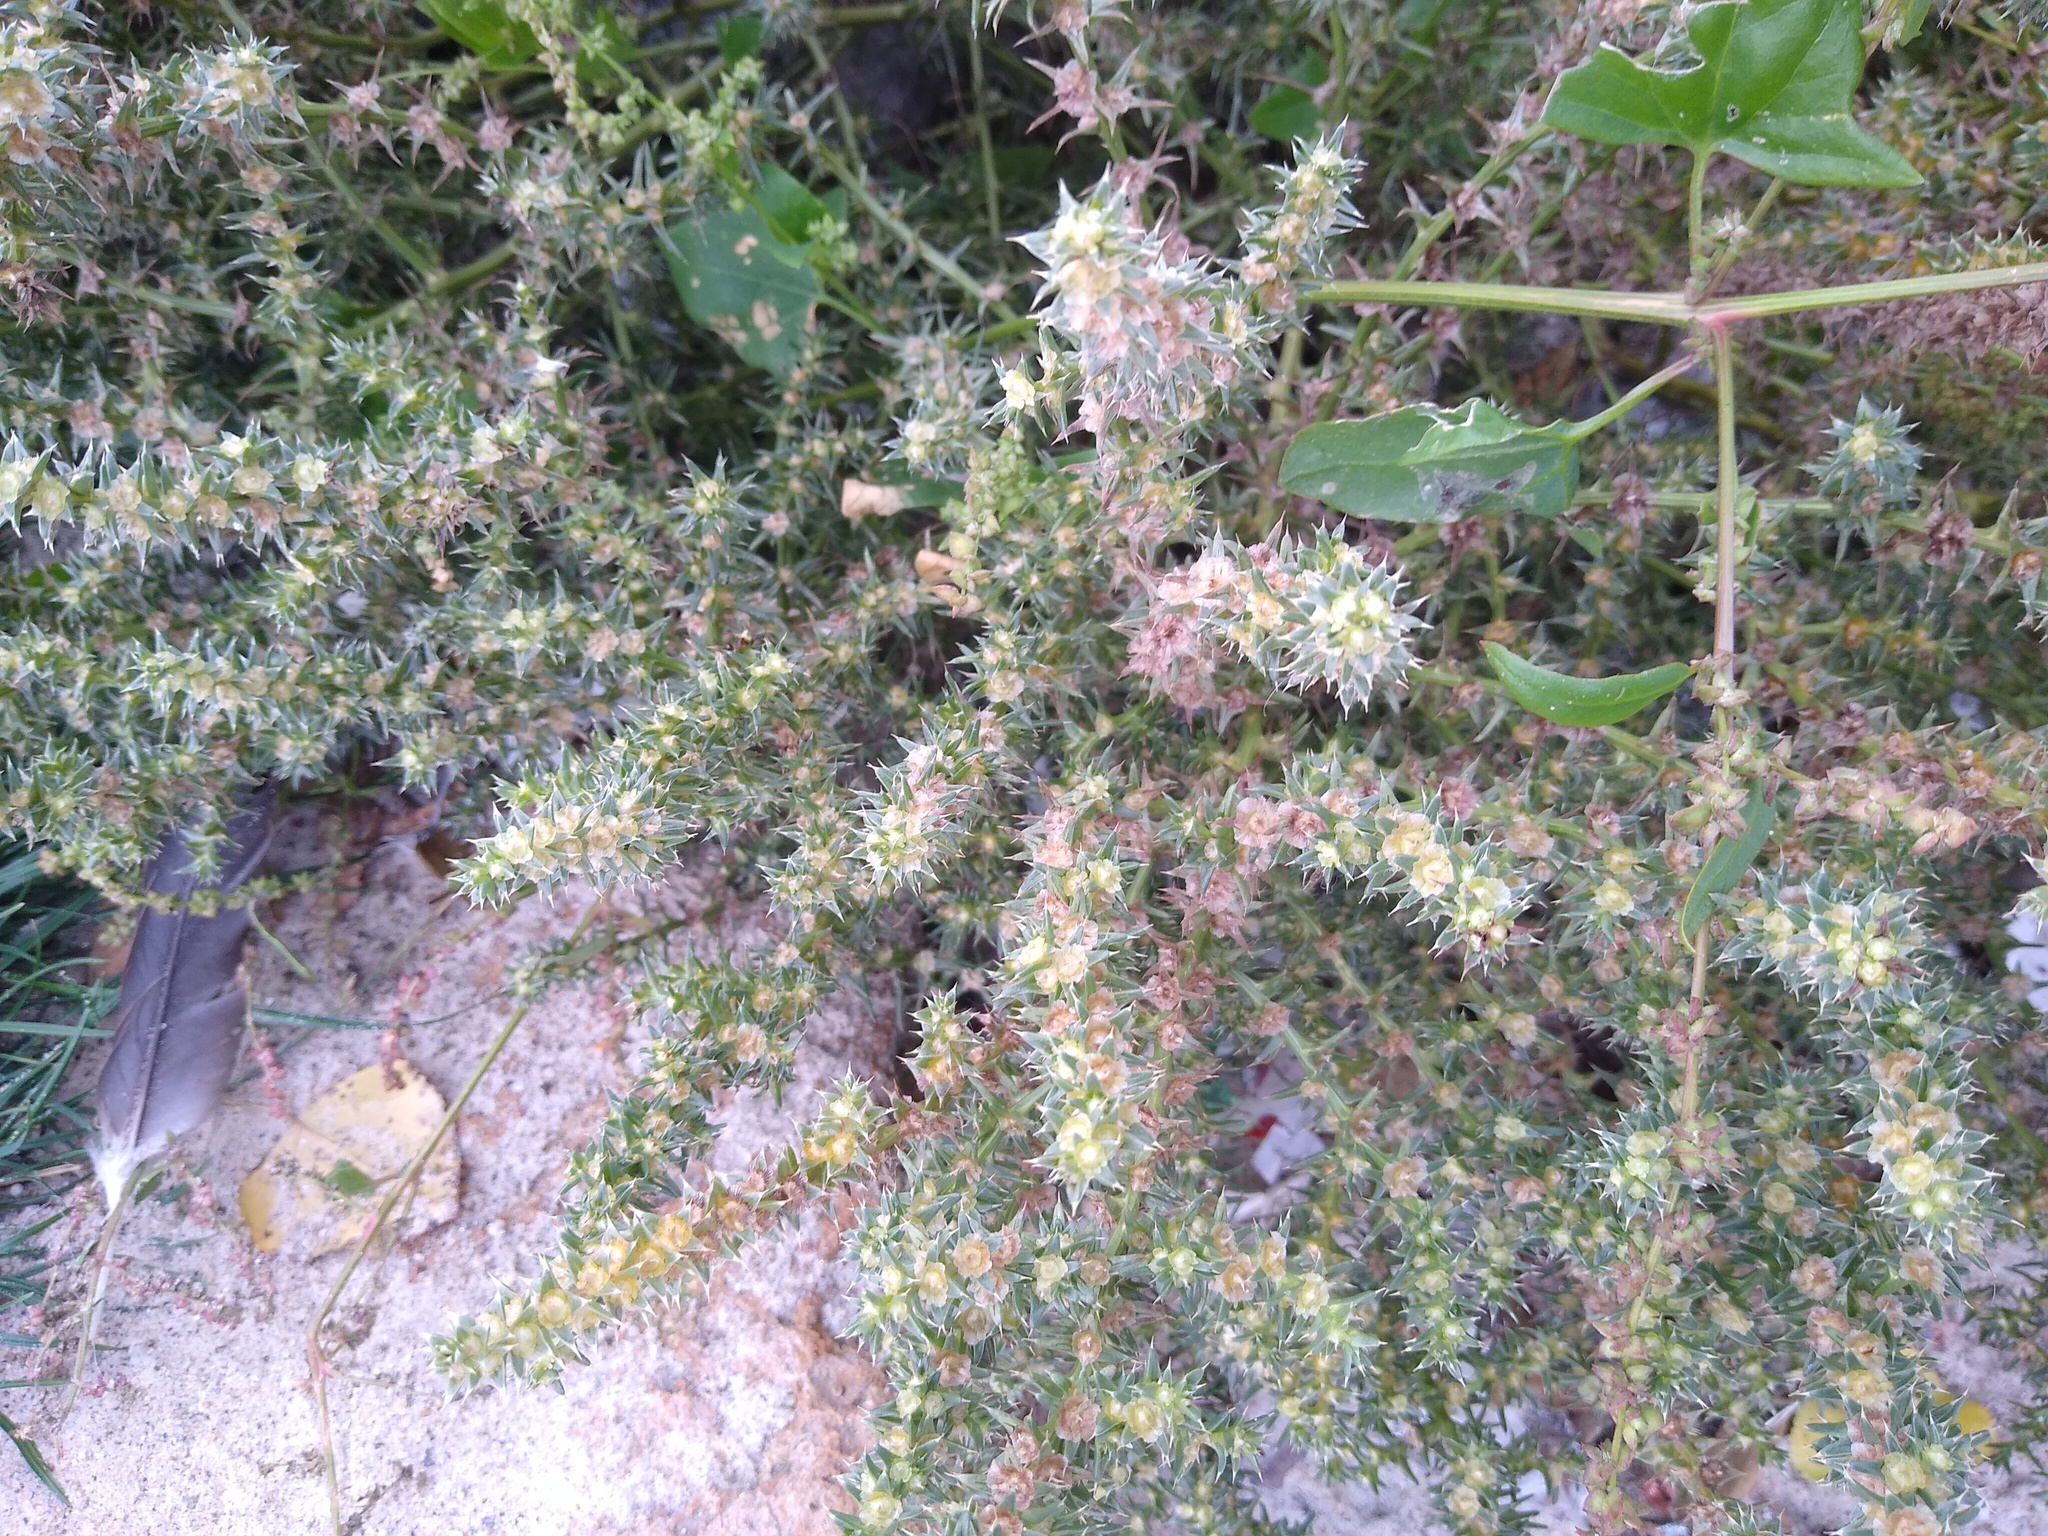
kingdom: Plantae
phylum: Tracheophyta
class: Magnoliopsida
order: Caryophyllales
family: Amaranthaceae
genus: Salsola
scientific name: Salsola tragus
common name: Prickly russian thistle
